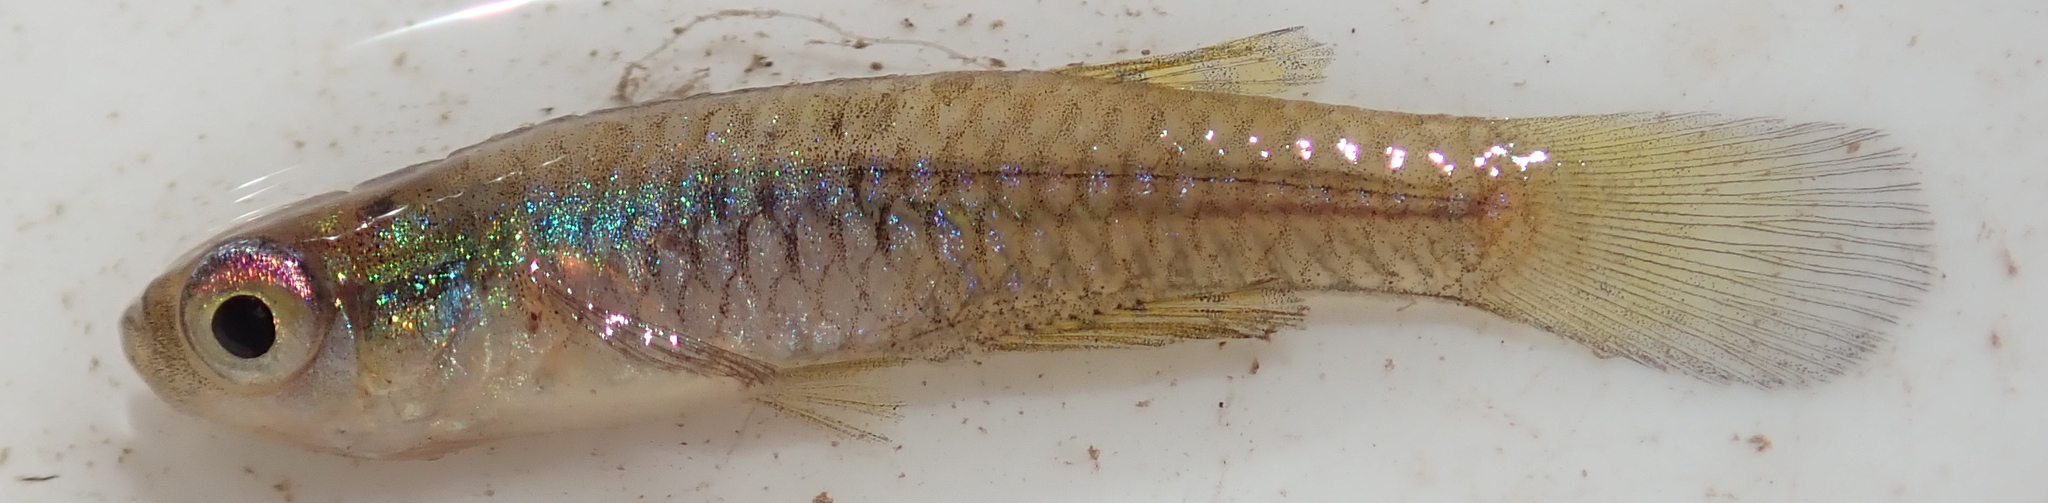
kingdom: Animalia
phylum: Chordata
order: Cyprinodontiformes
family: Poeciliidae
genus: Micropanchax
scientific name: Micropanchax johnstoni
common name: Johnston's topminnow
